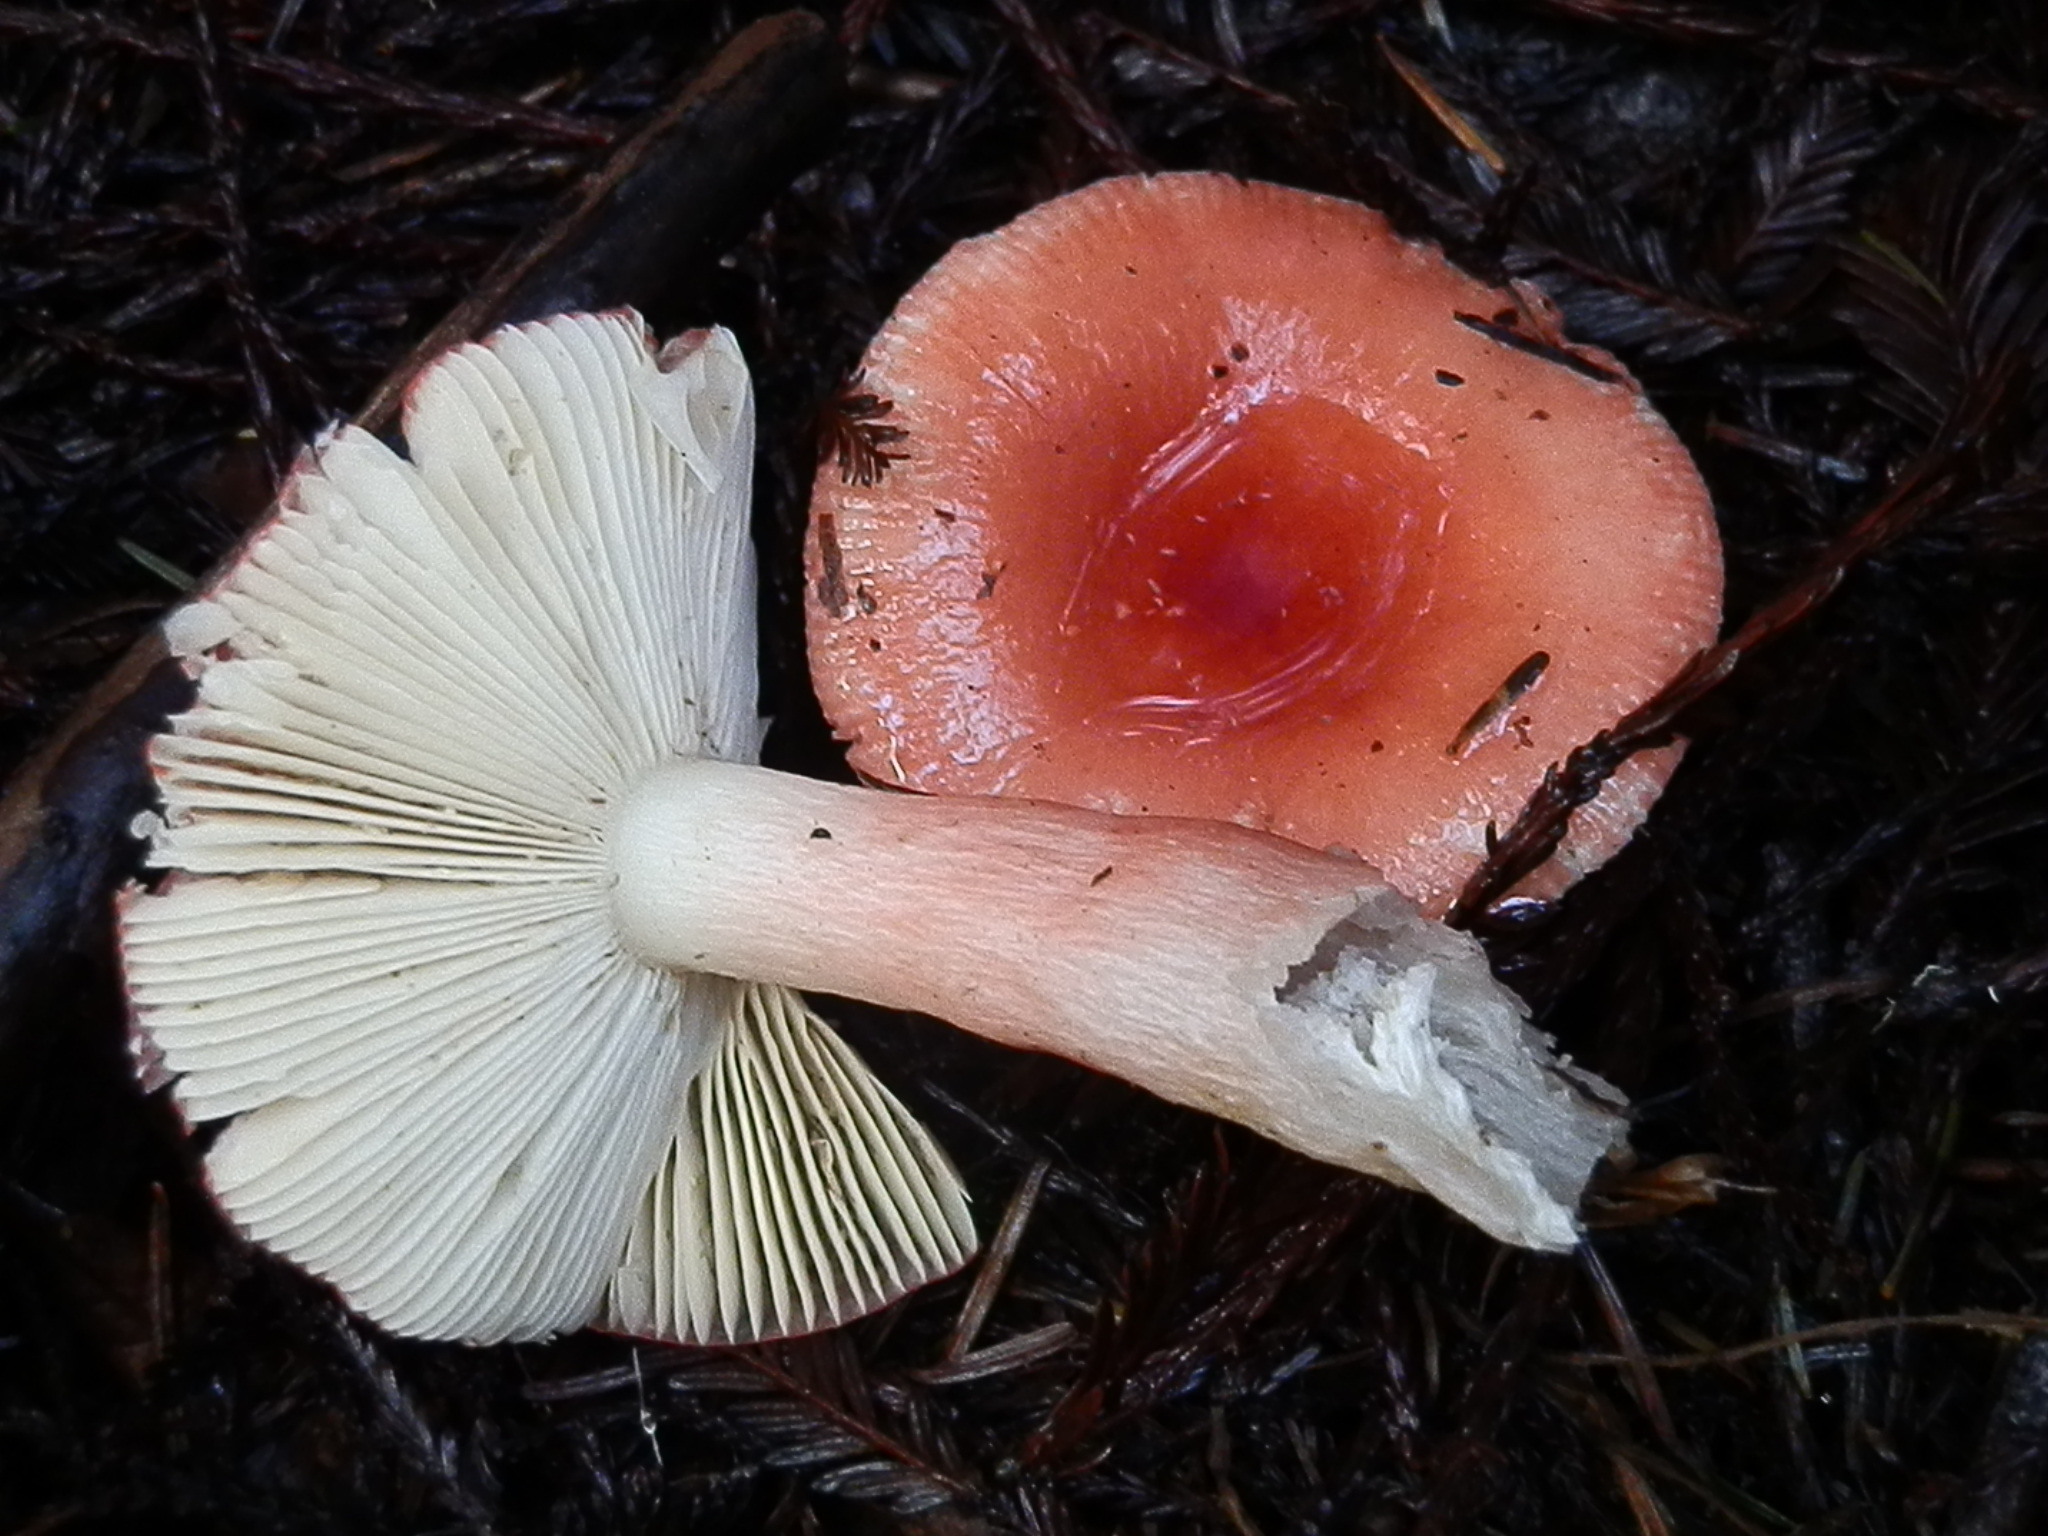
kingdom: Fungi
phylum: Basidiomycota
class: Agaricomycetes
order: Russulales
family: Russulaceae
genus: Russula
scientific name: Russula rosea
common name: Rosy brittlegill
